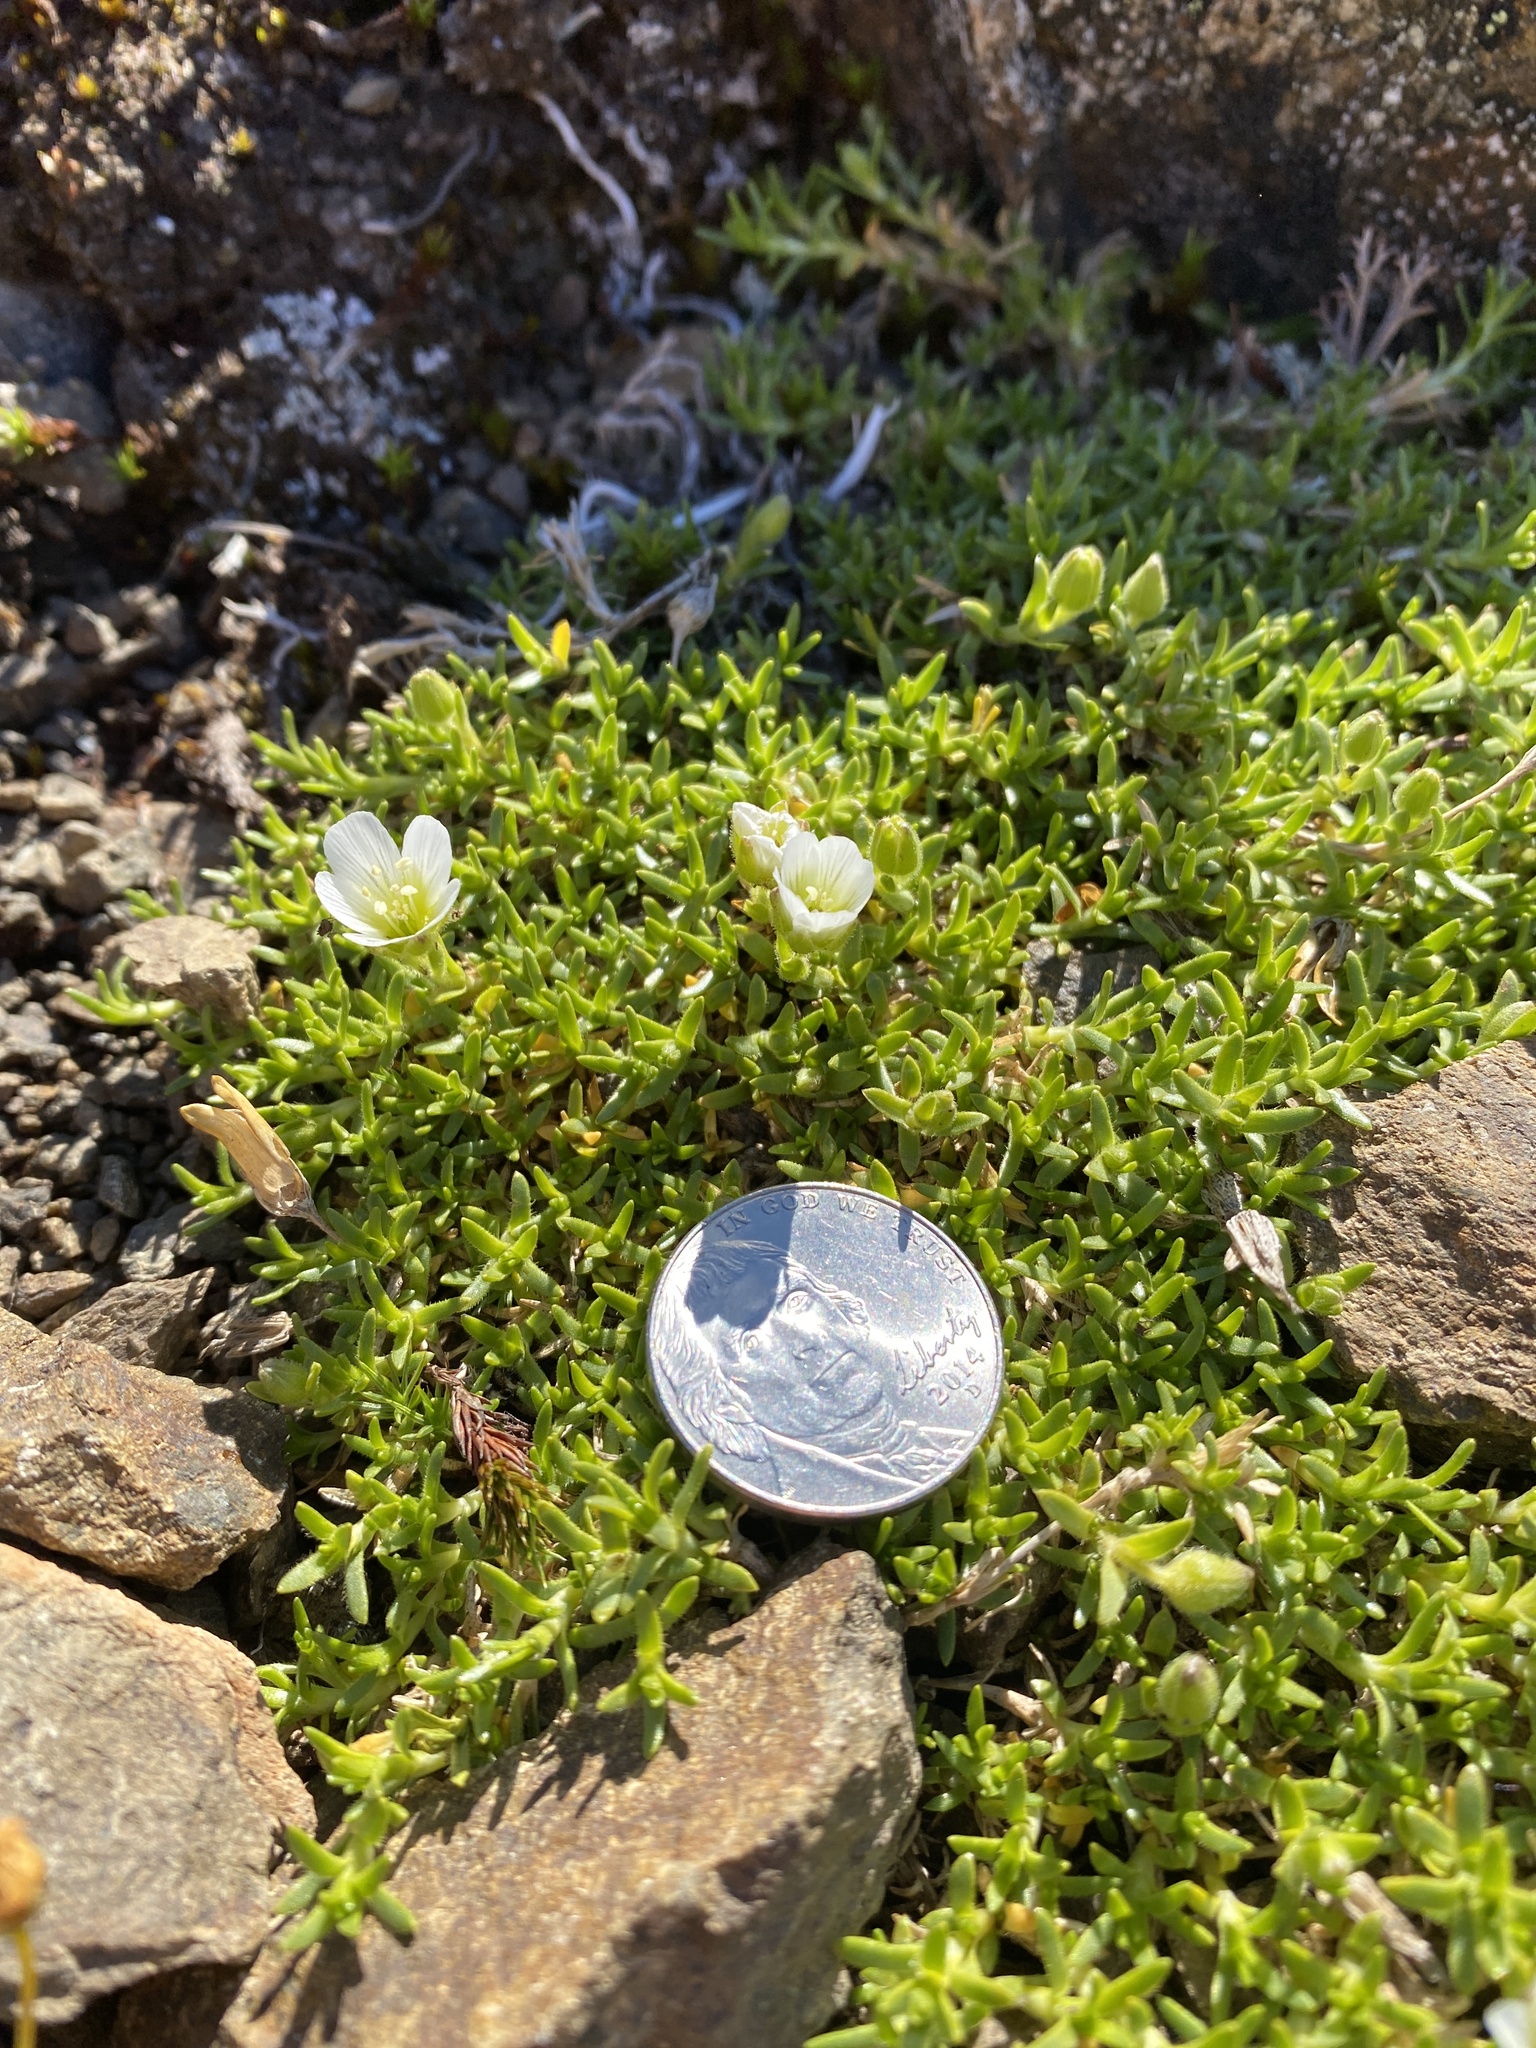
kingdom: Plantae
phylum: Tracheophyta
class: Magnoliopsida
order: Caryophyllales
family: Caryophyllaceae
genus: Pseudocherleria
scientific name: Pseudocherleria macrocarpa
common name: Large-fruit sandwort
